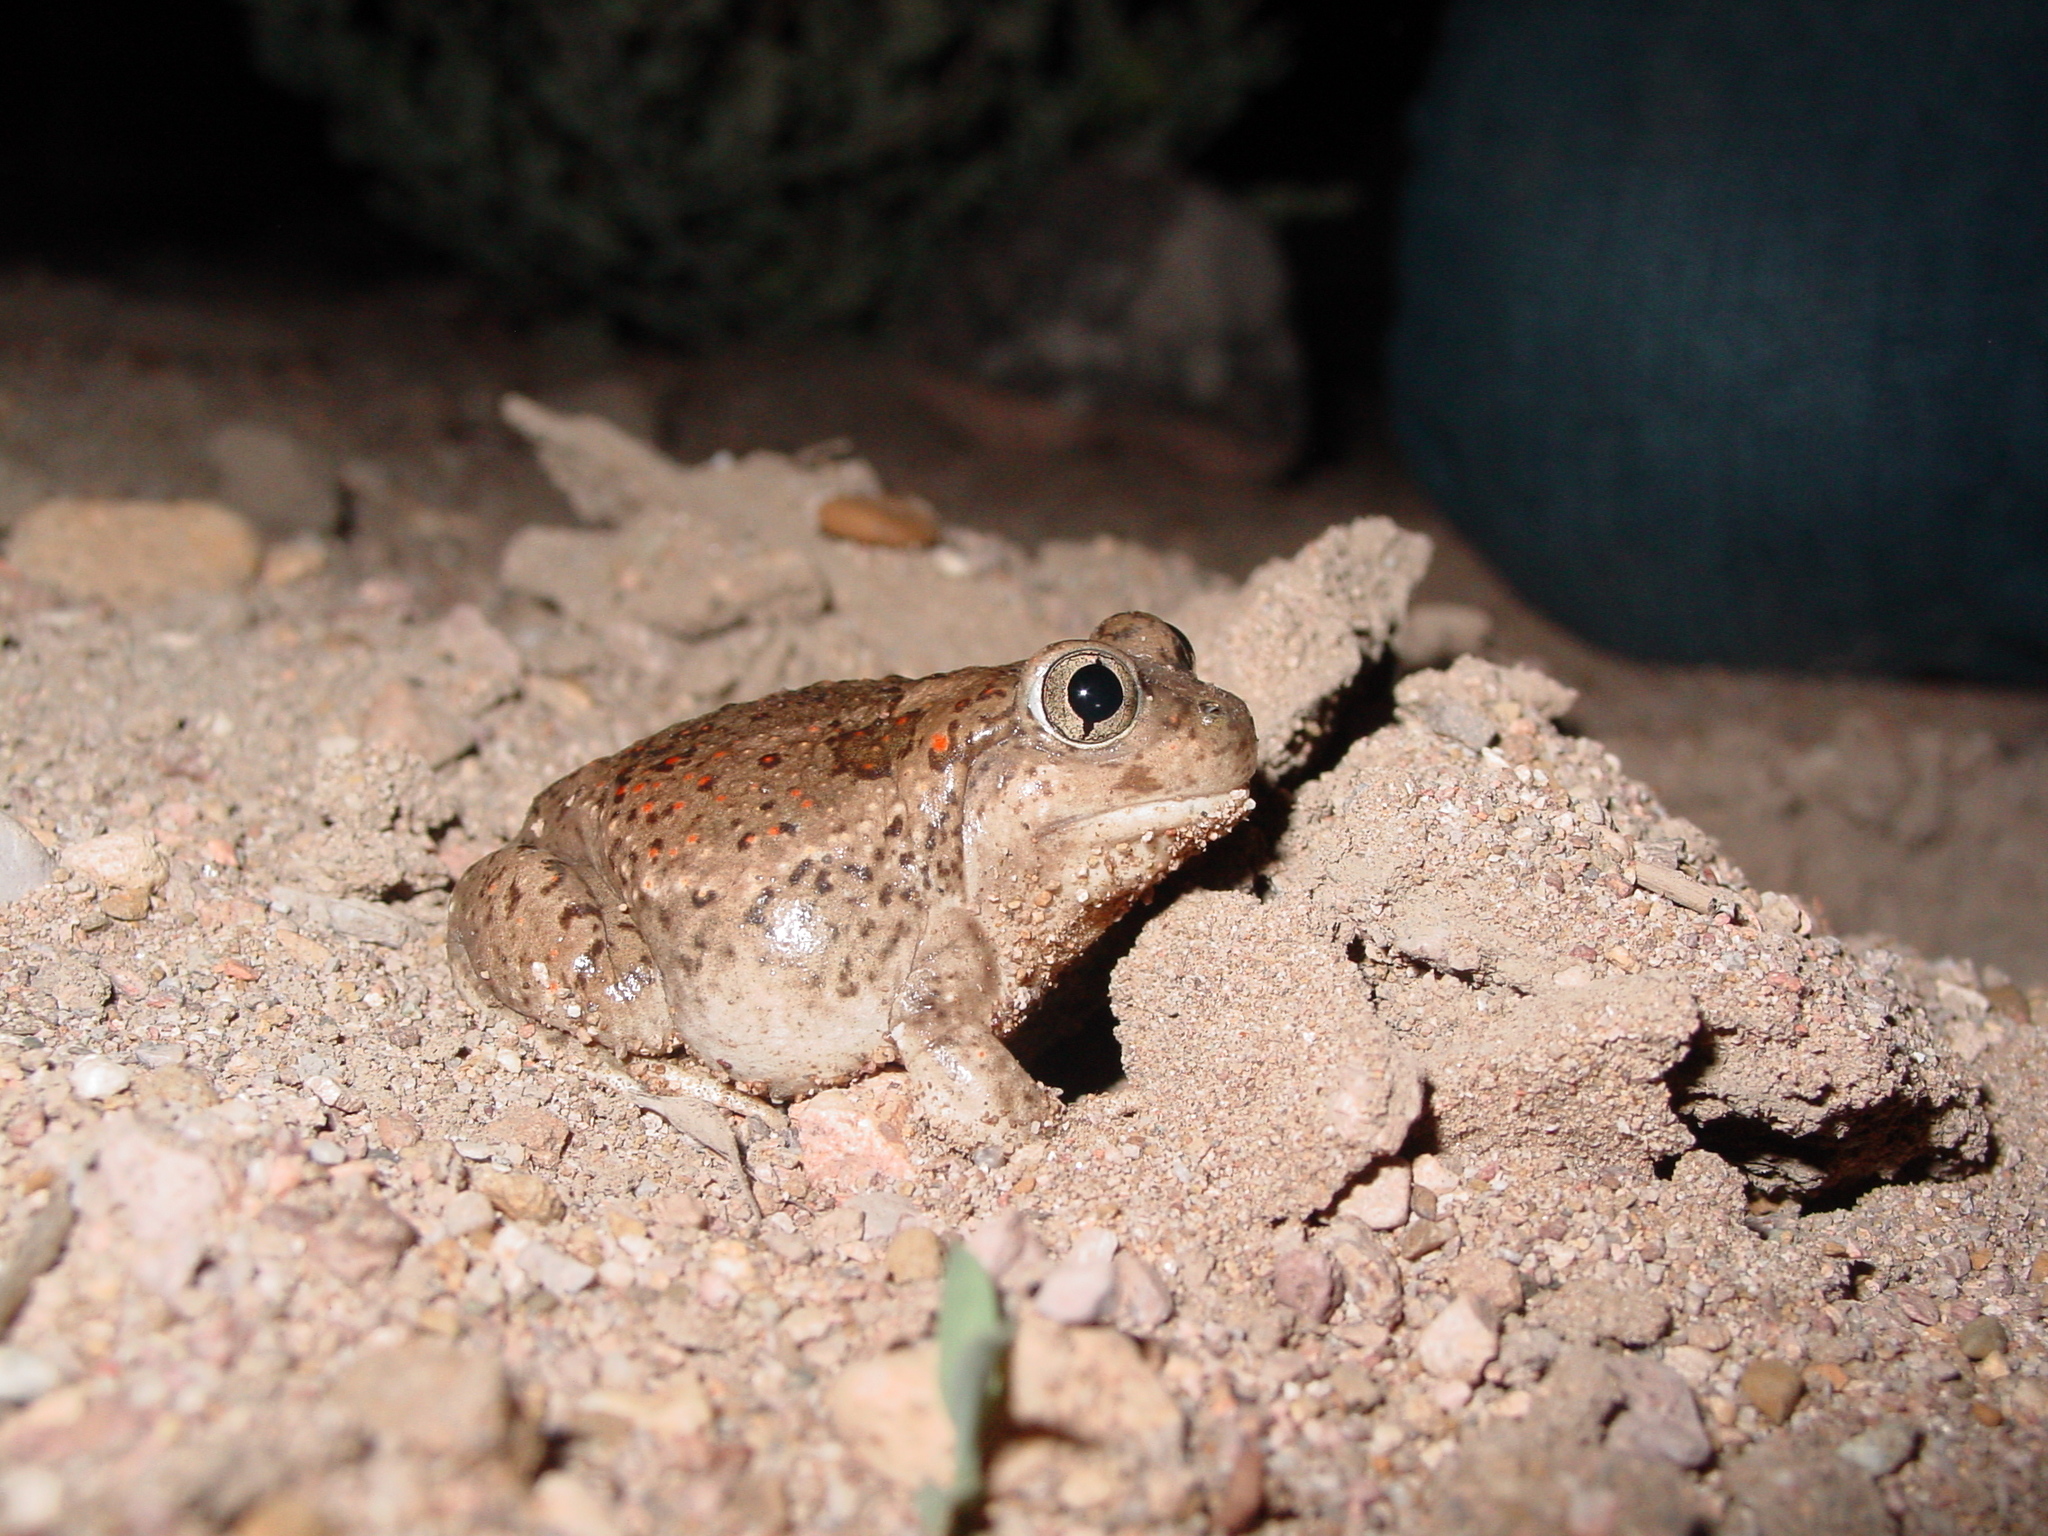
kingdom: Animalia
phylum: Chordata
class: Amphibia
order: Anura
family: Scaphiopodidae
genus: Spea
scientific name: Spea multiplicata
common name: Mexican spadefoot
